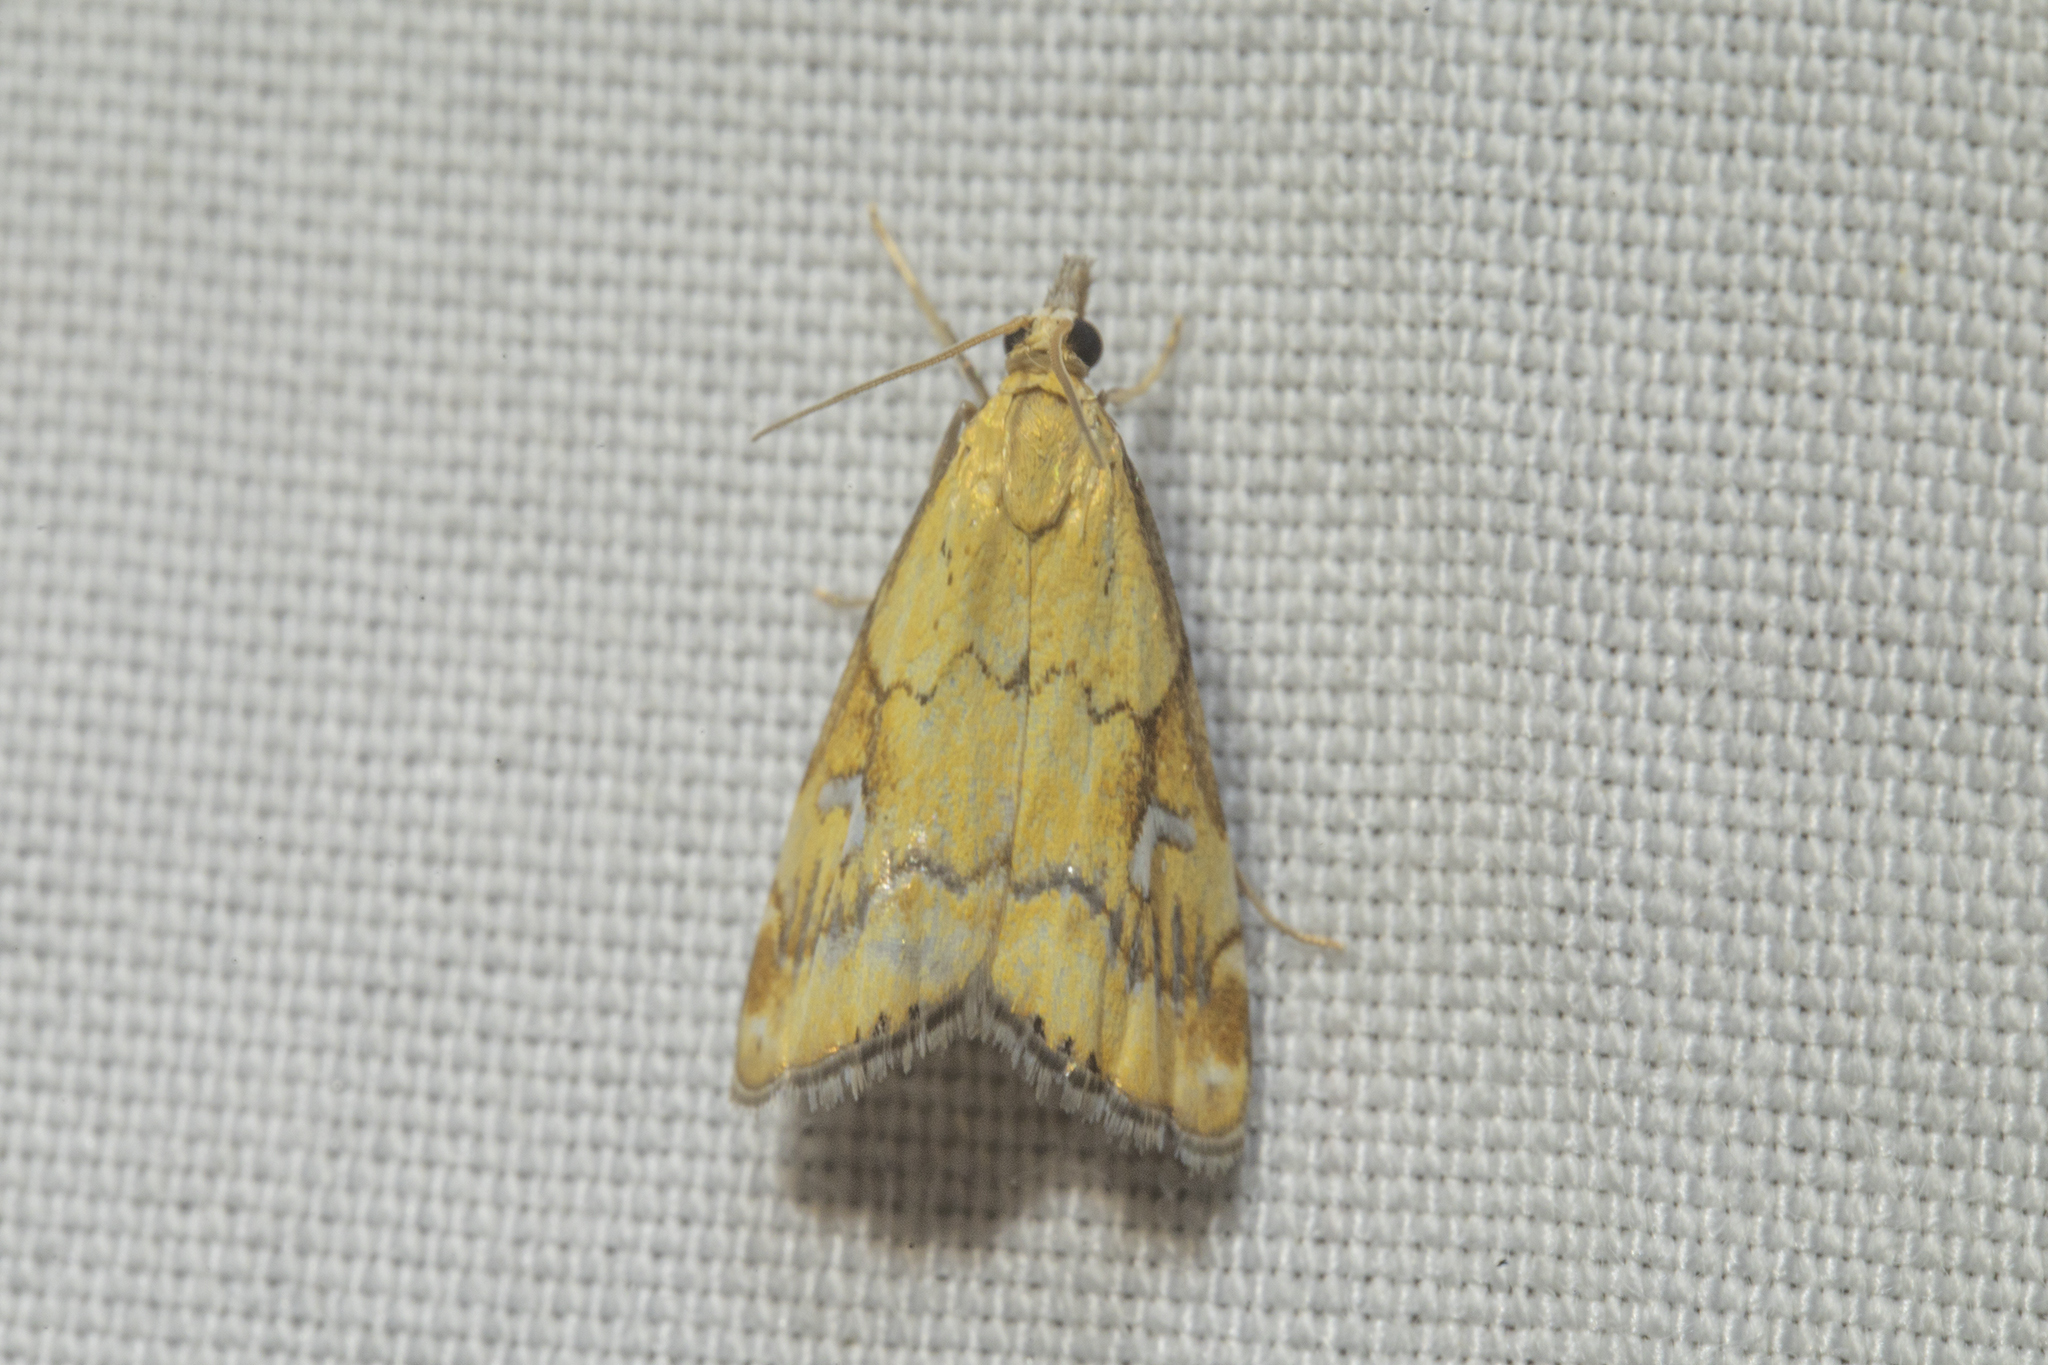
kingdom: Animalia
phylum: Arthropoda
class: Insecta
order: Lepidoptera
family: Crambidae
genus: Glaucocharis
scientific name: Glaucocharis lepidella
